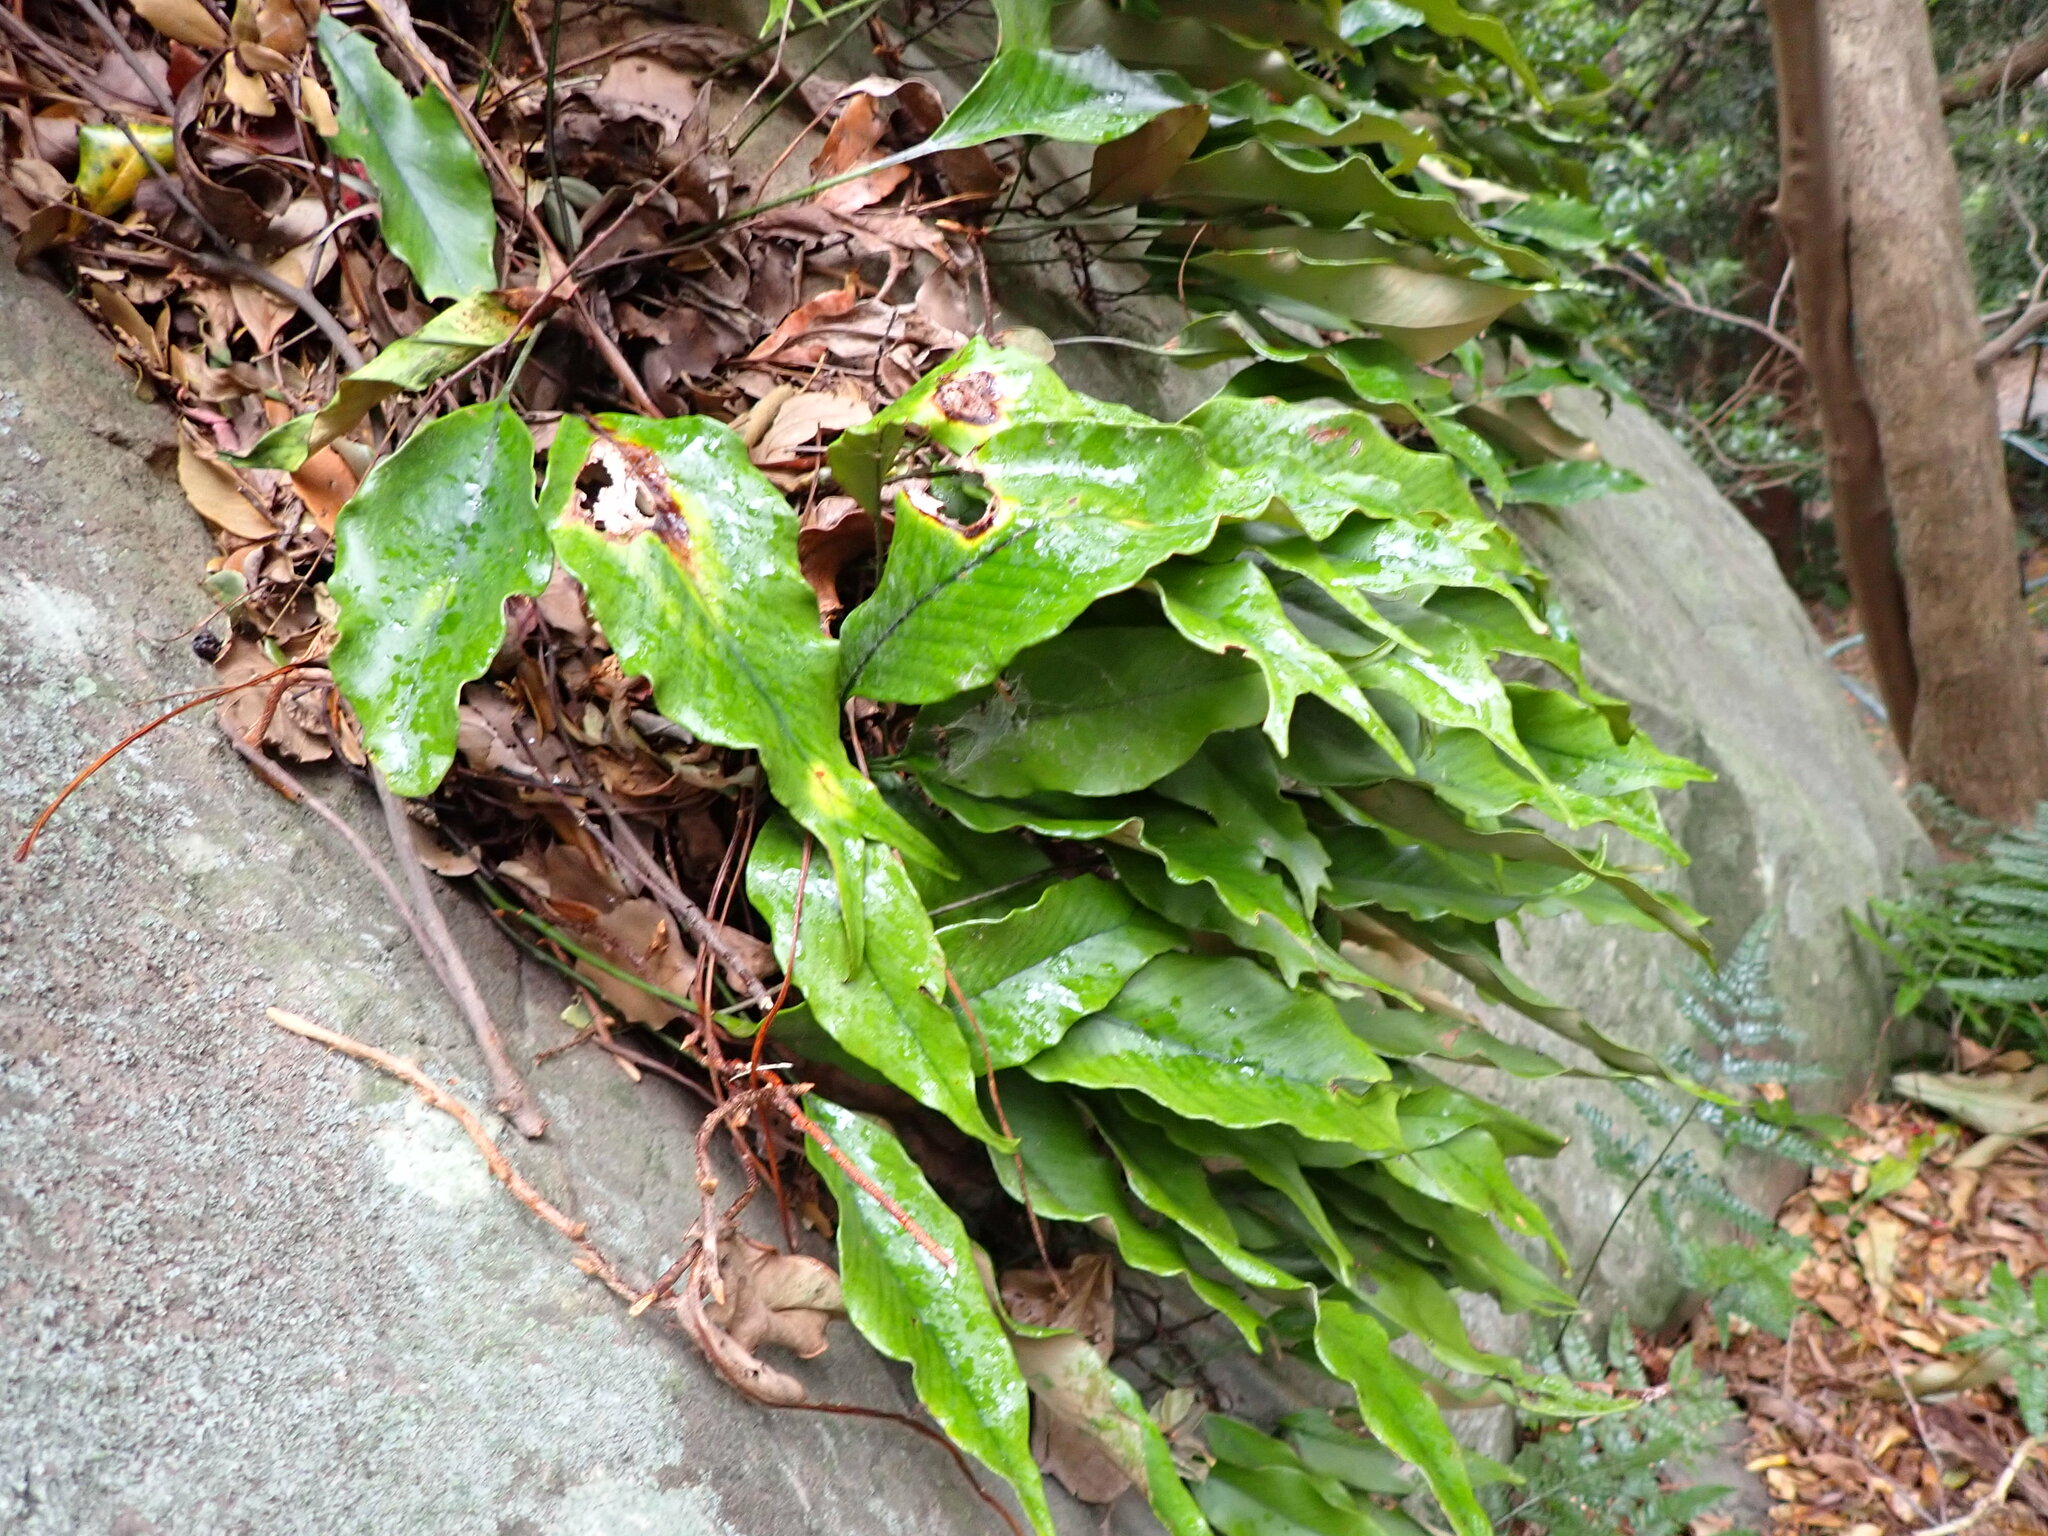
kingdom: Plantae
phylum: Tracheophyta
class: Polypodiopsida
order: Polypodiales
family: Polypodiaceae
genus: Pyrrosia
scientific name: Pyrrosia lingua
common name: Felt fern
